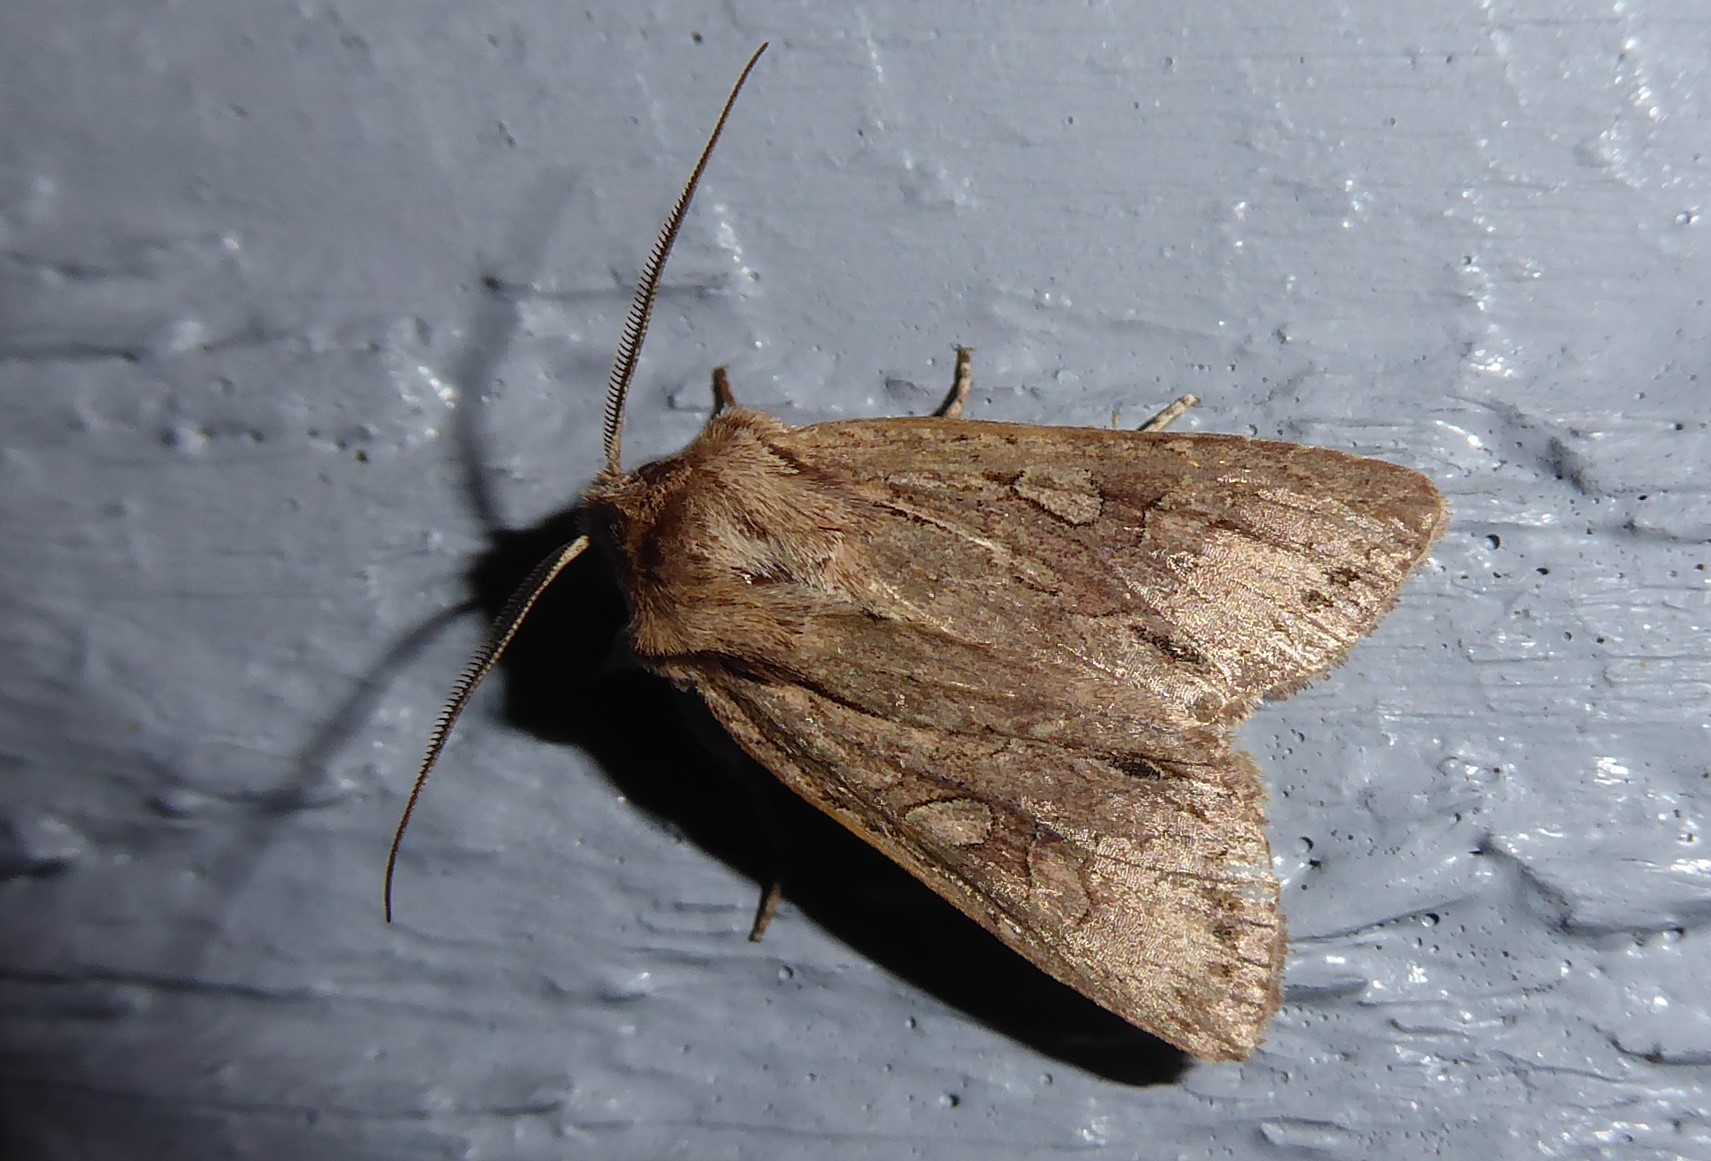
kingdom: Animalia
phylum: Arthropoda
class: Insecta
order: Lepidoptera
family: Noctuidae
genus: Ichneutica
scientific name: Ichneutica
